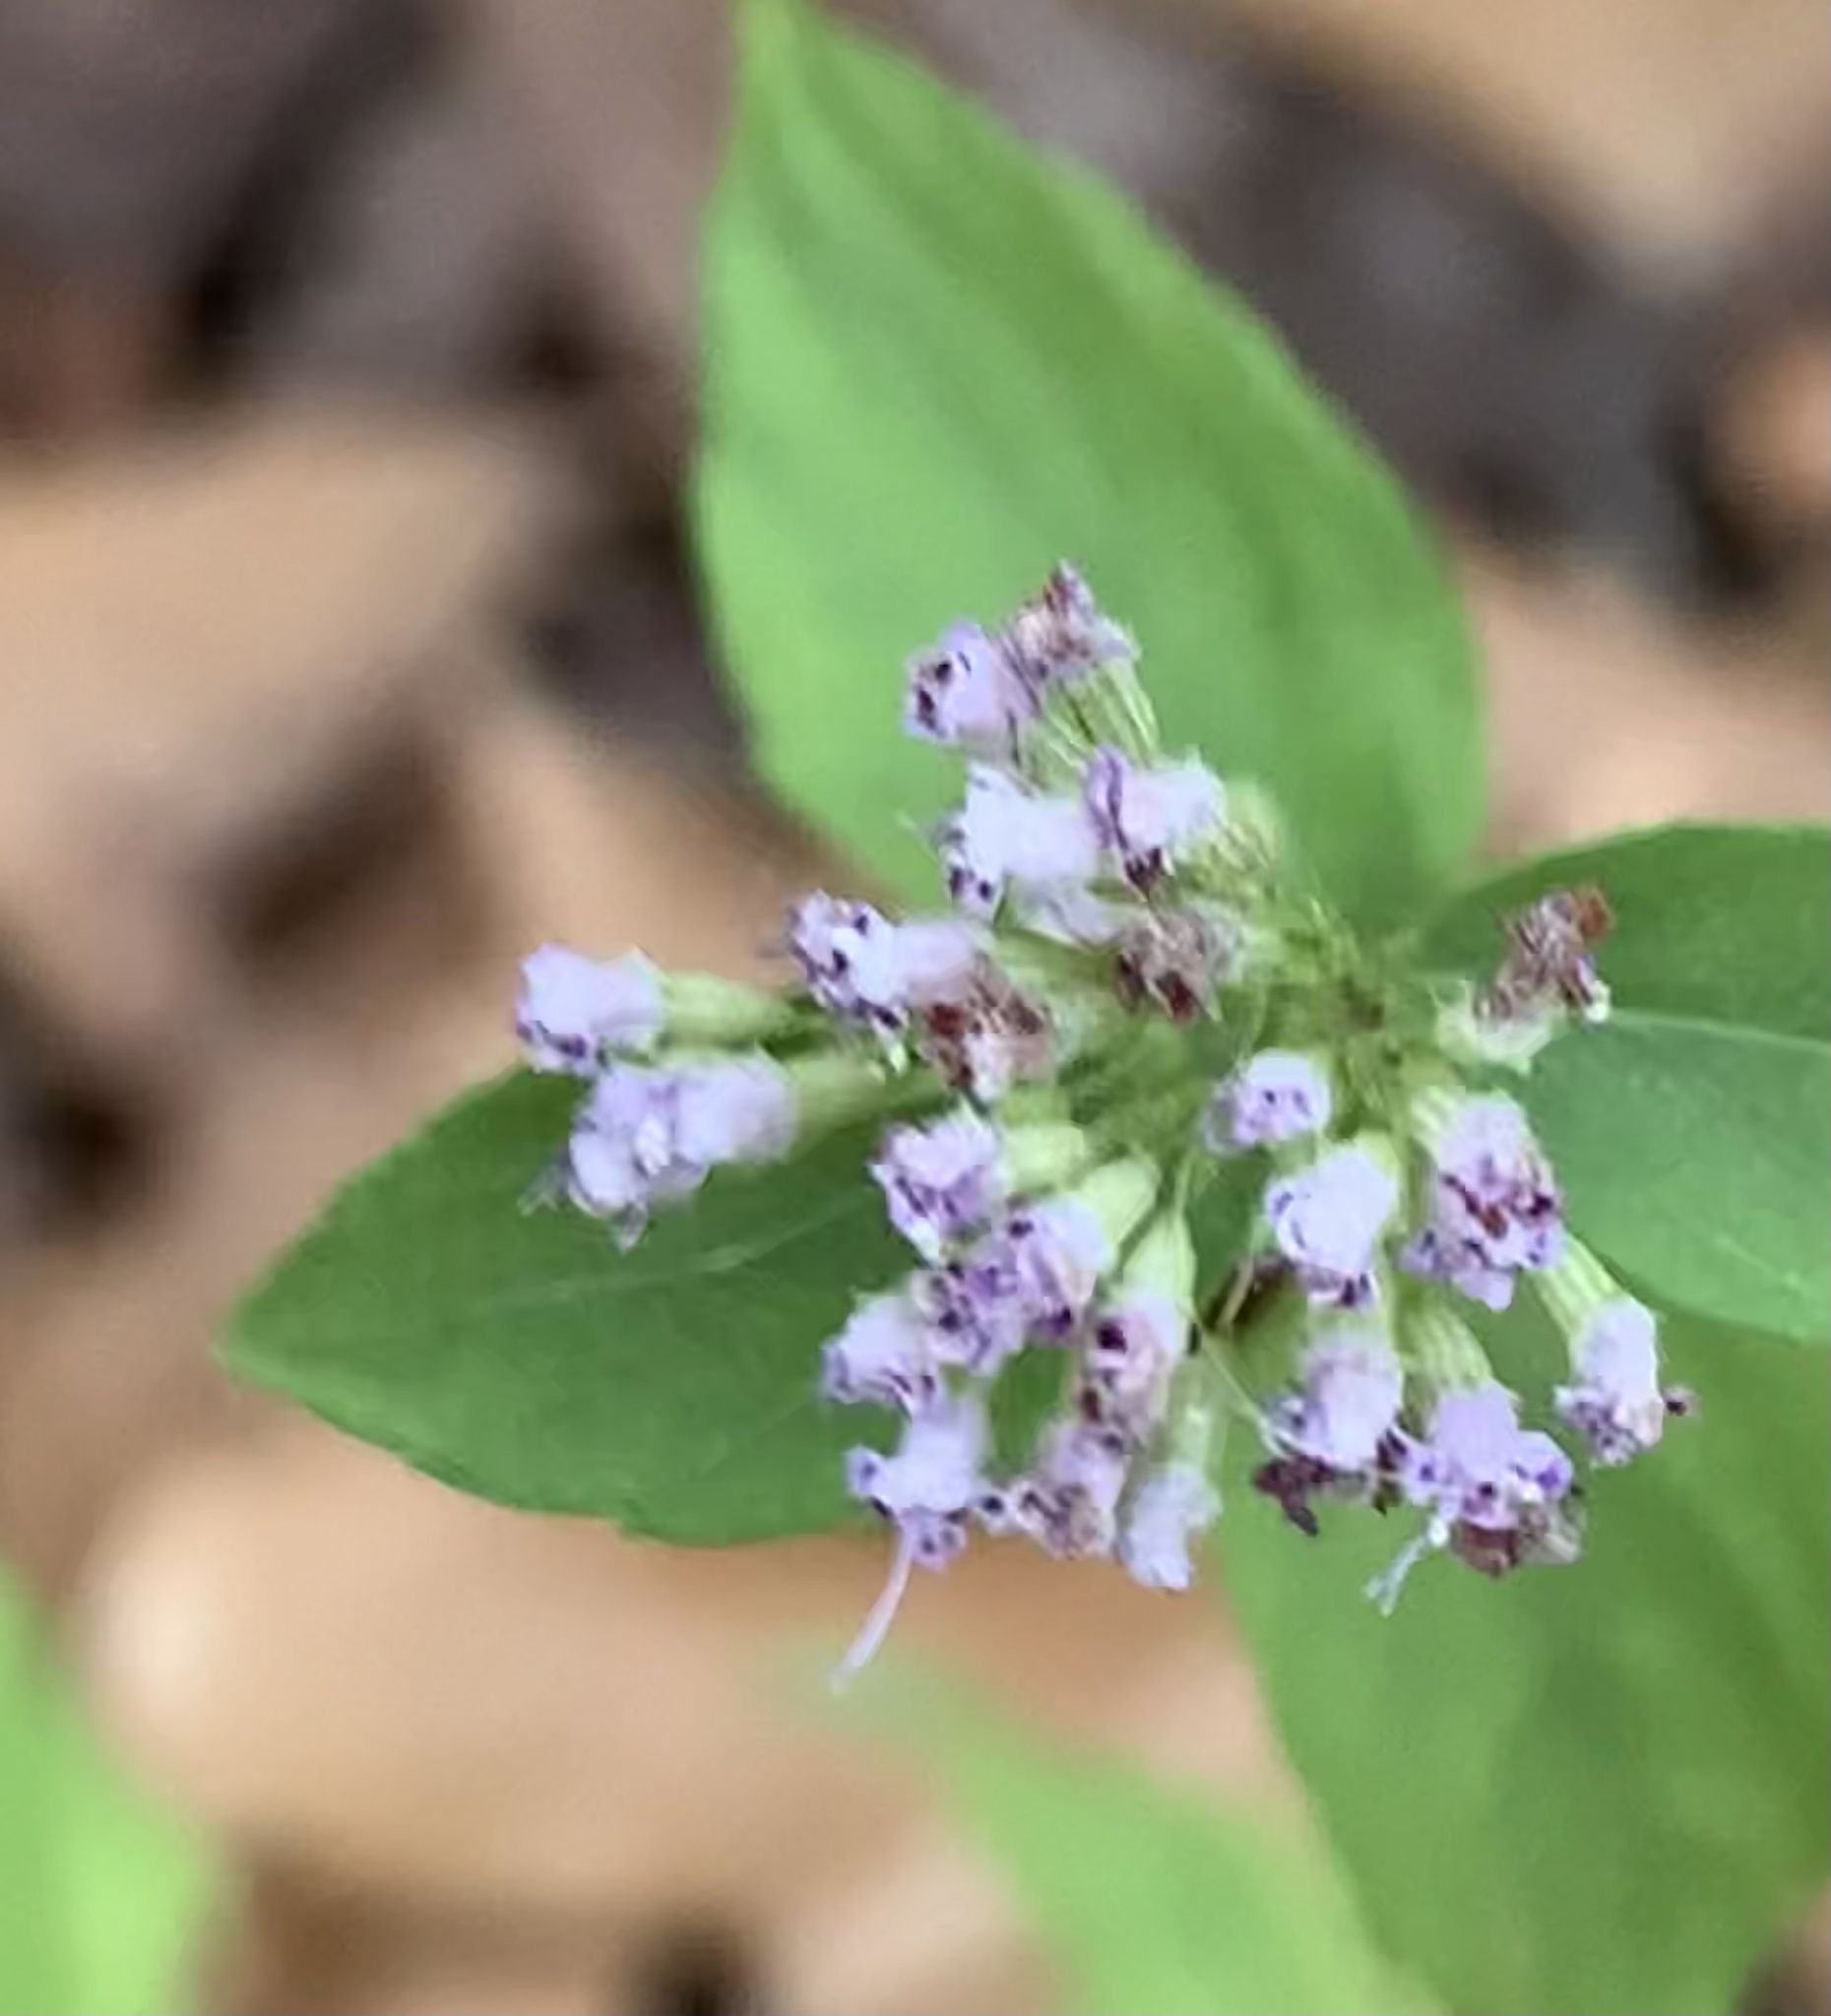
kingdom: Plantae
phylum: Tracheophyta
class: Magnoliopsida
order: Lamiales
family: Lamiaceae
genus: Cunila
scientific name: Cunila origanoides
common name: American dittany
